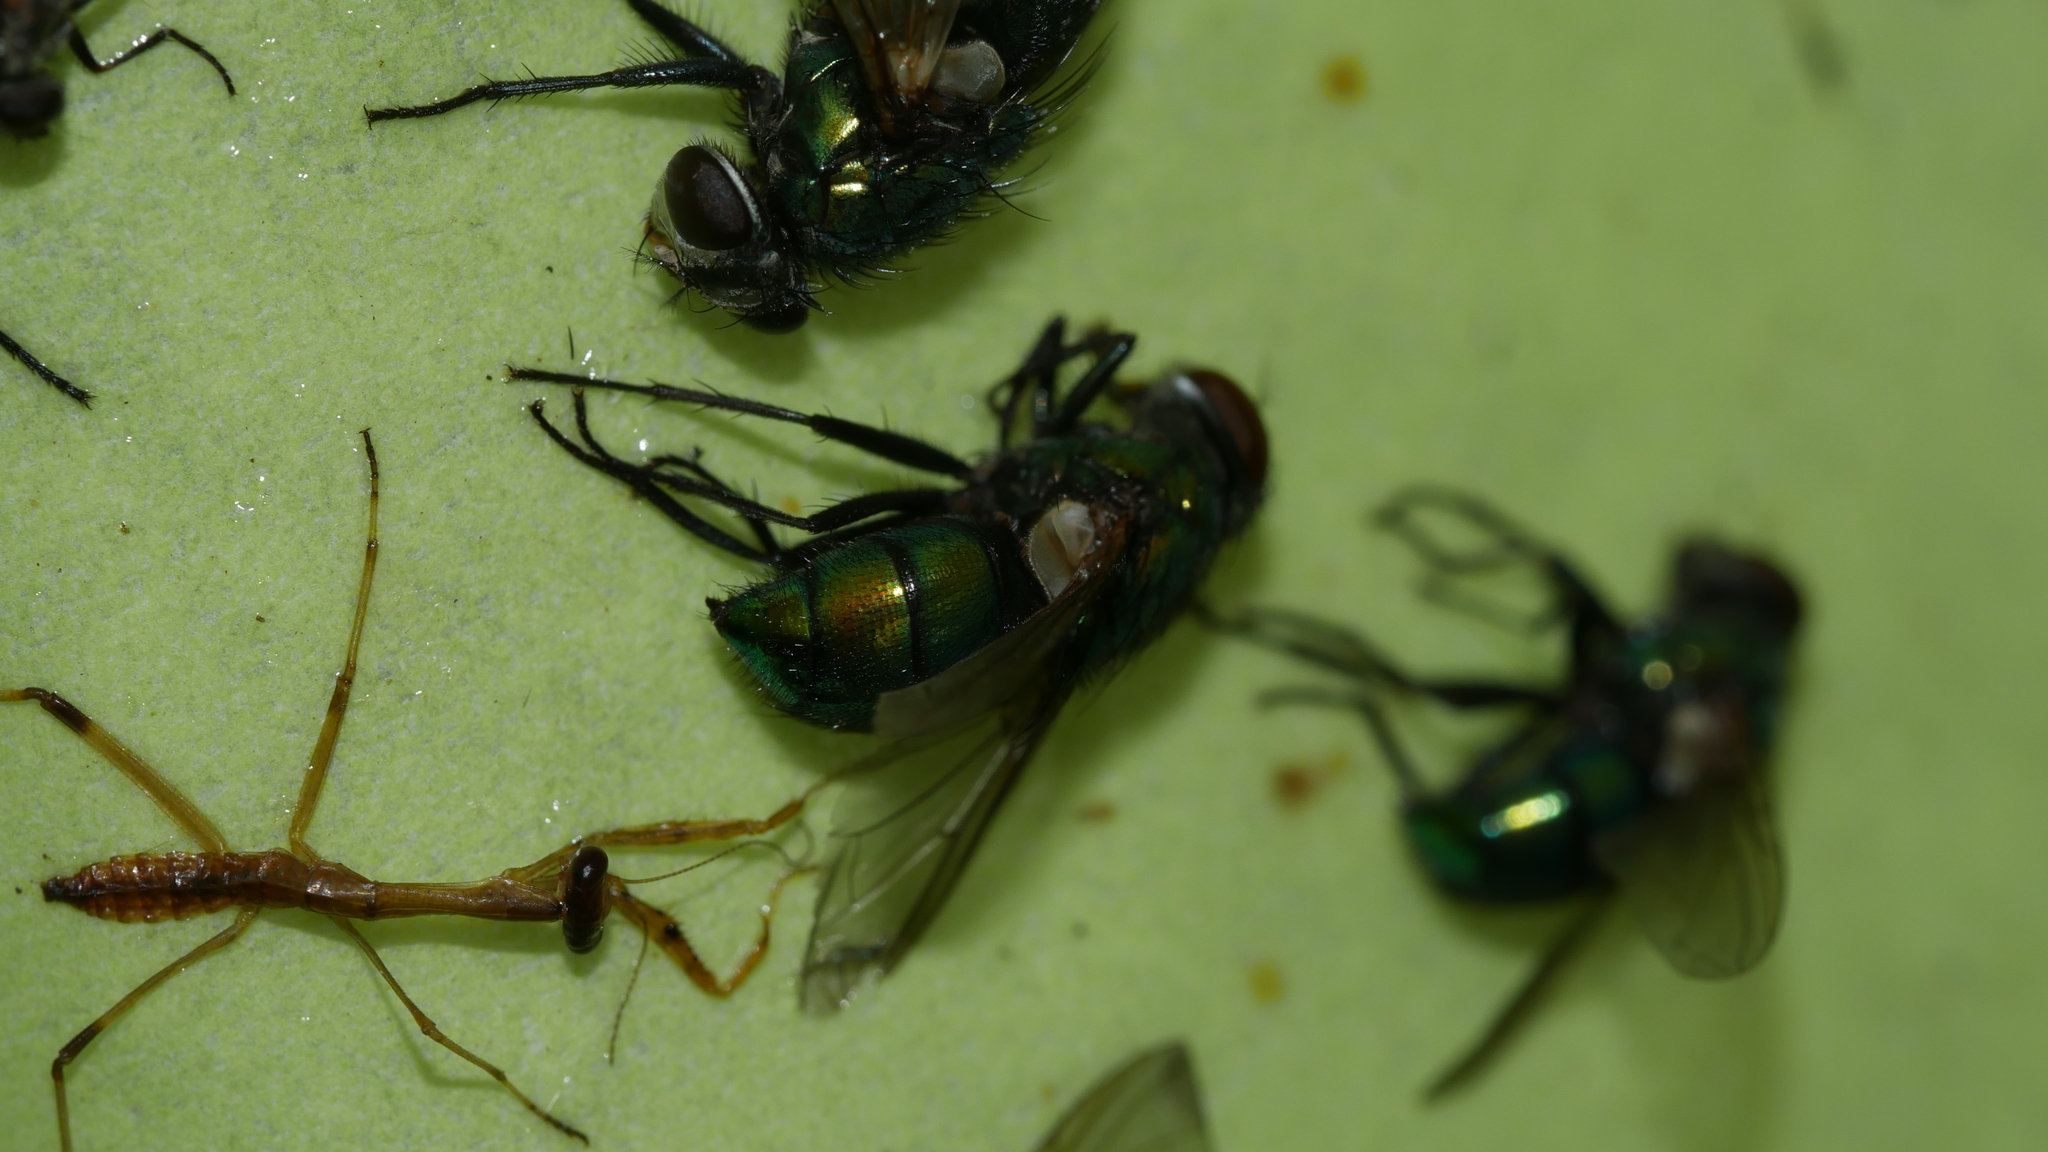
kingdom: Animalia
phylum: Arthropoda
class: Insecta
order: Diptera
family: Calliphoridae
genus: Lucilia
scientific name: Lucilia caeruleiviridis
